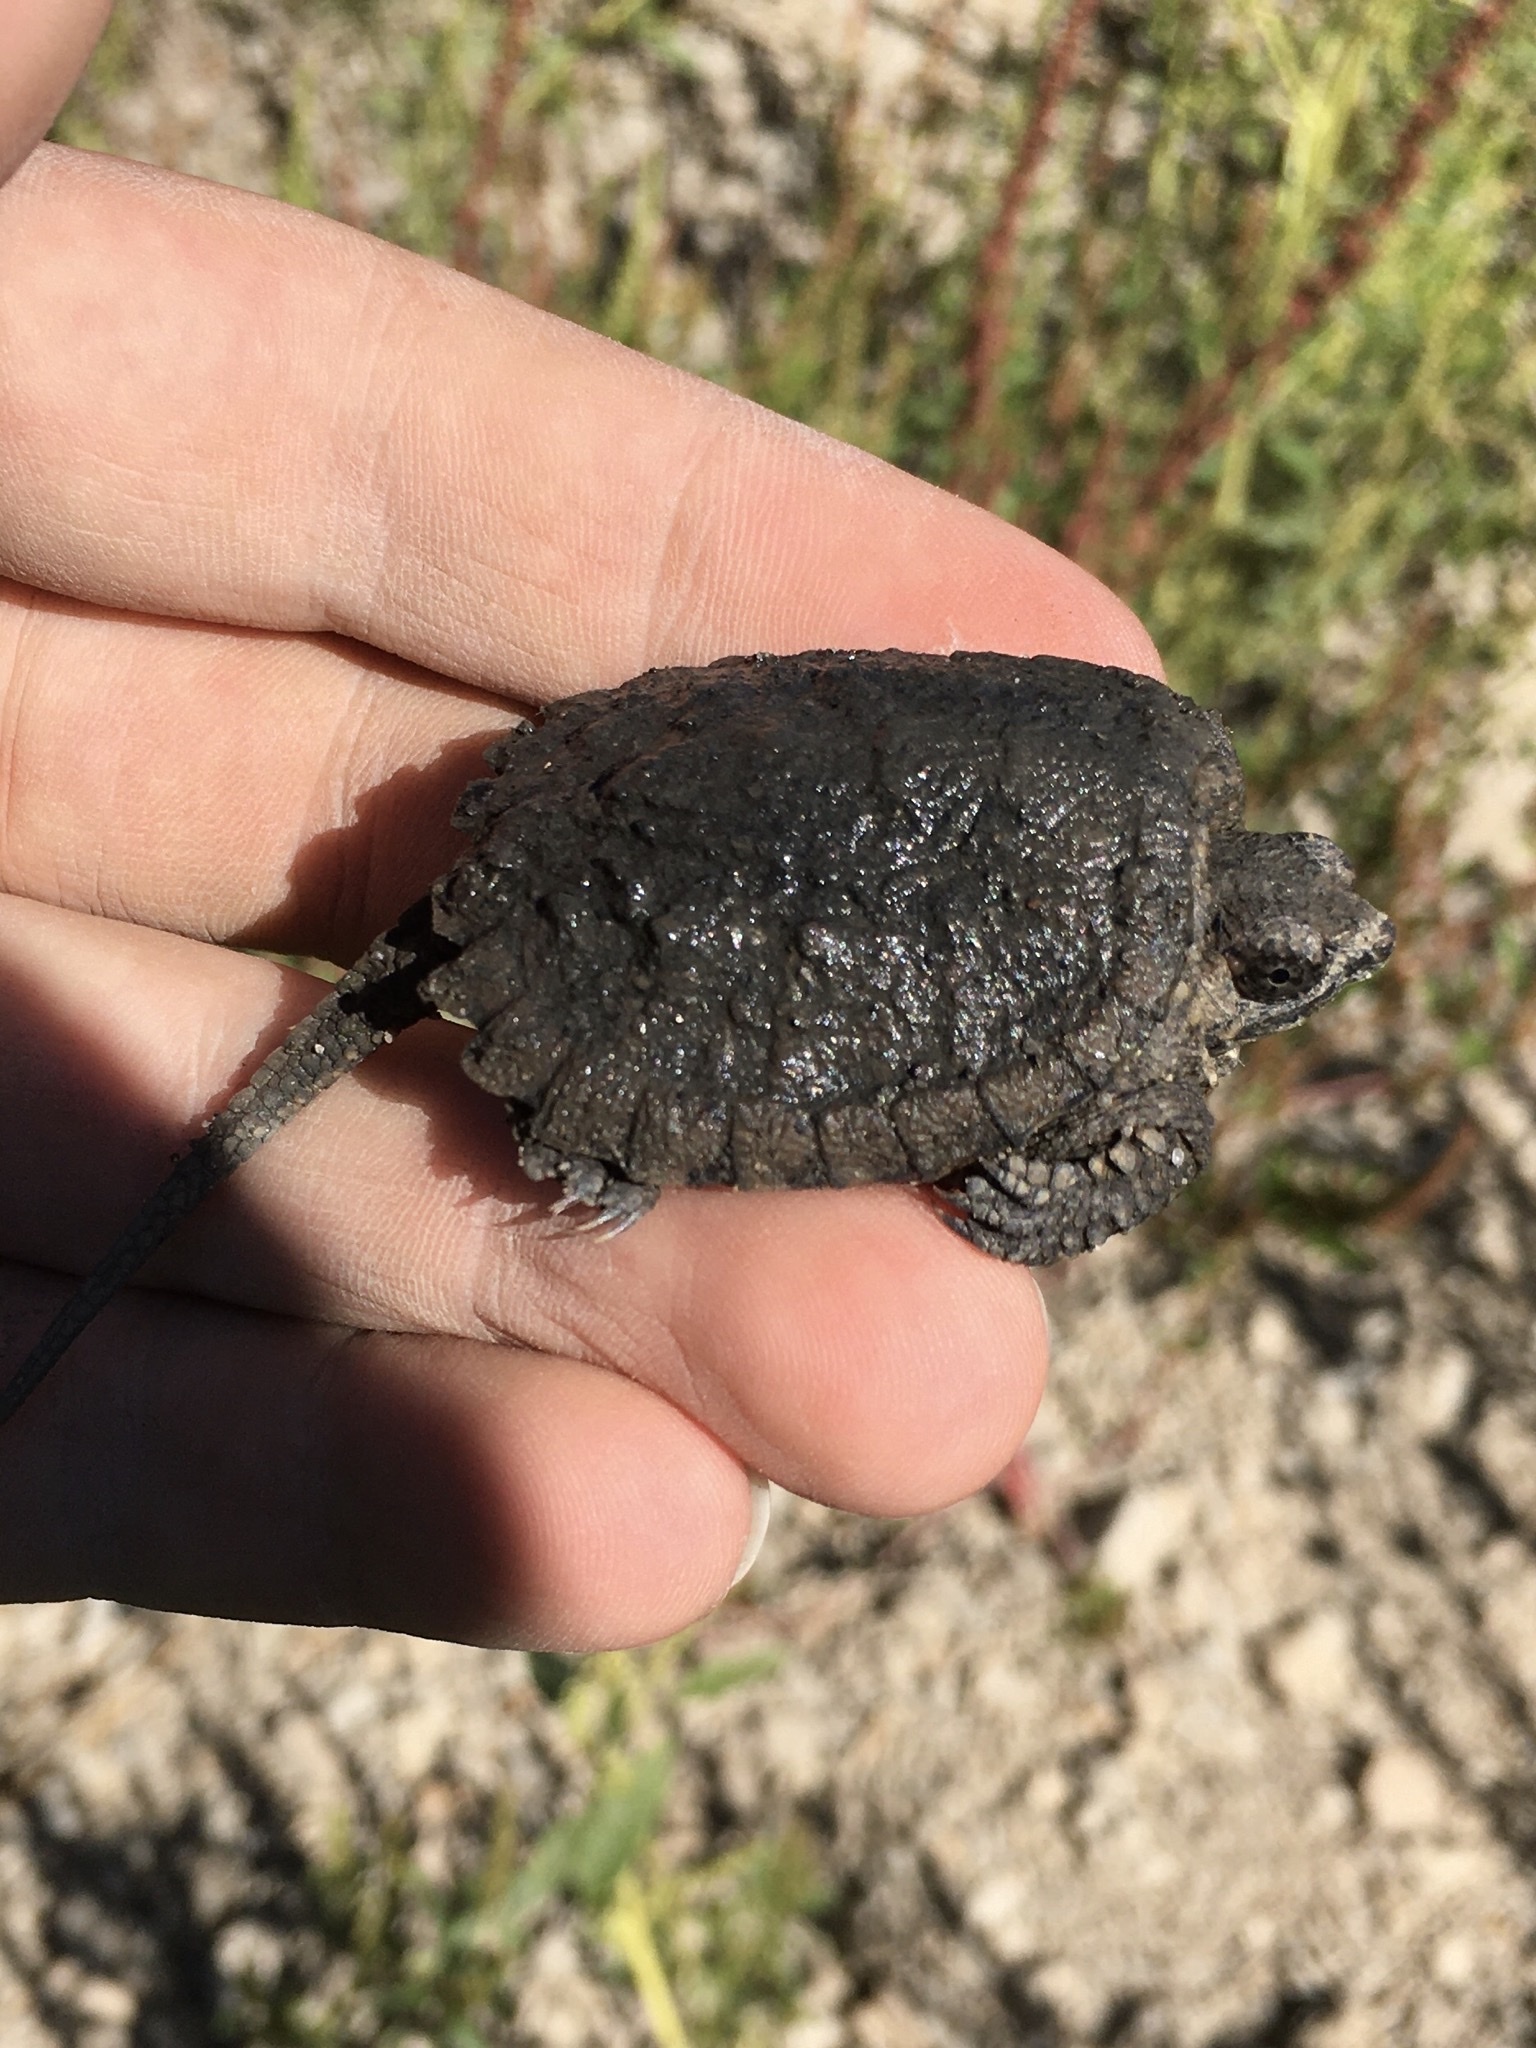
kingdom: Animalia
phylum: Chordata
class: Testudines
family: Chelydridae
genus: Chelydra
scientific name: Chelydra serpentina
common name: Common snapping turtle
